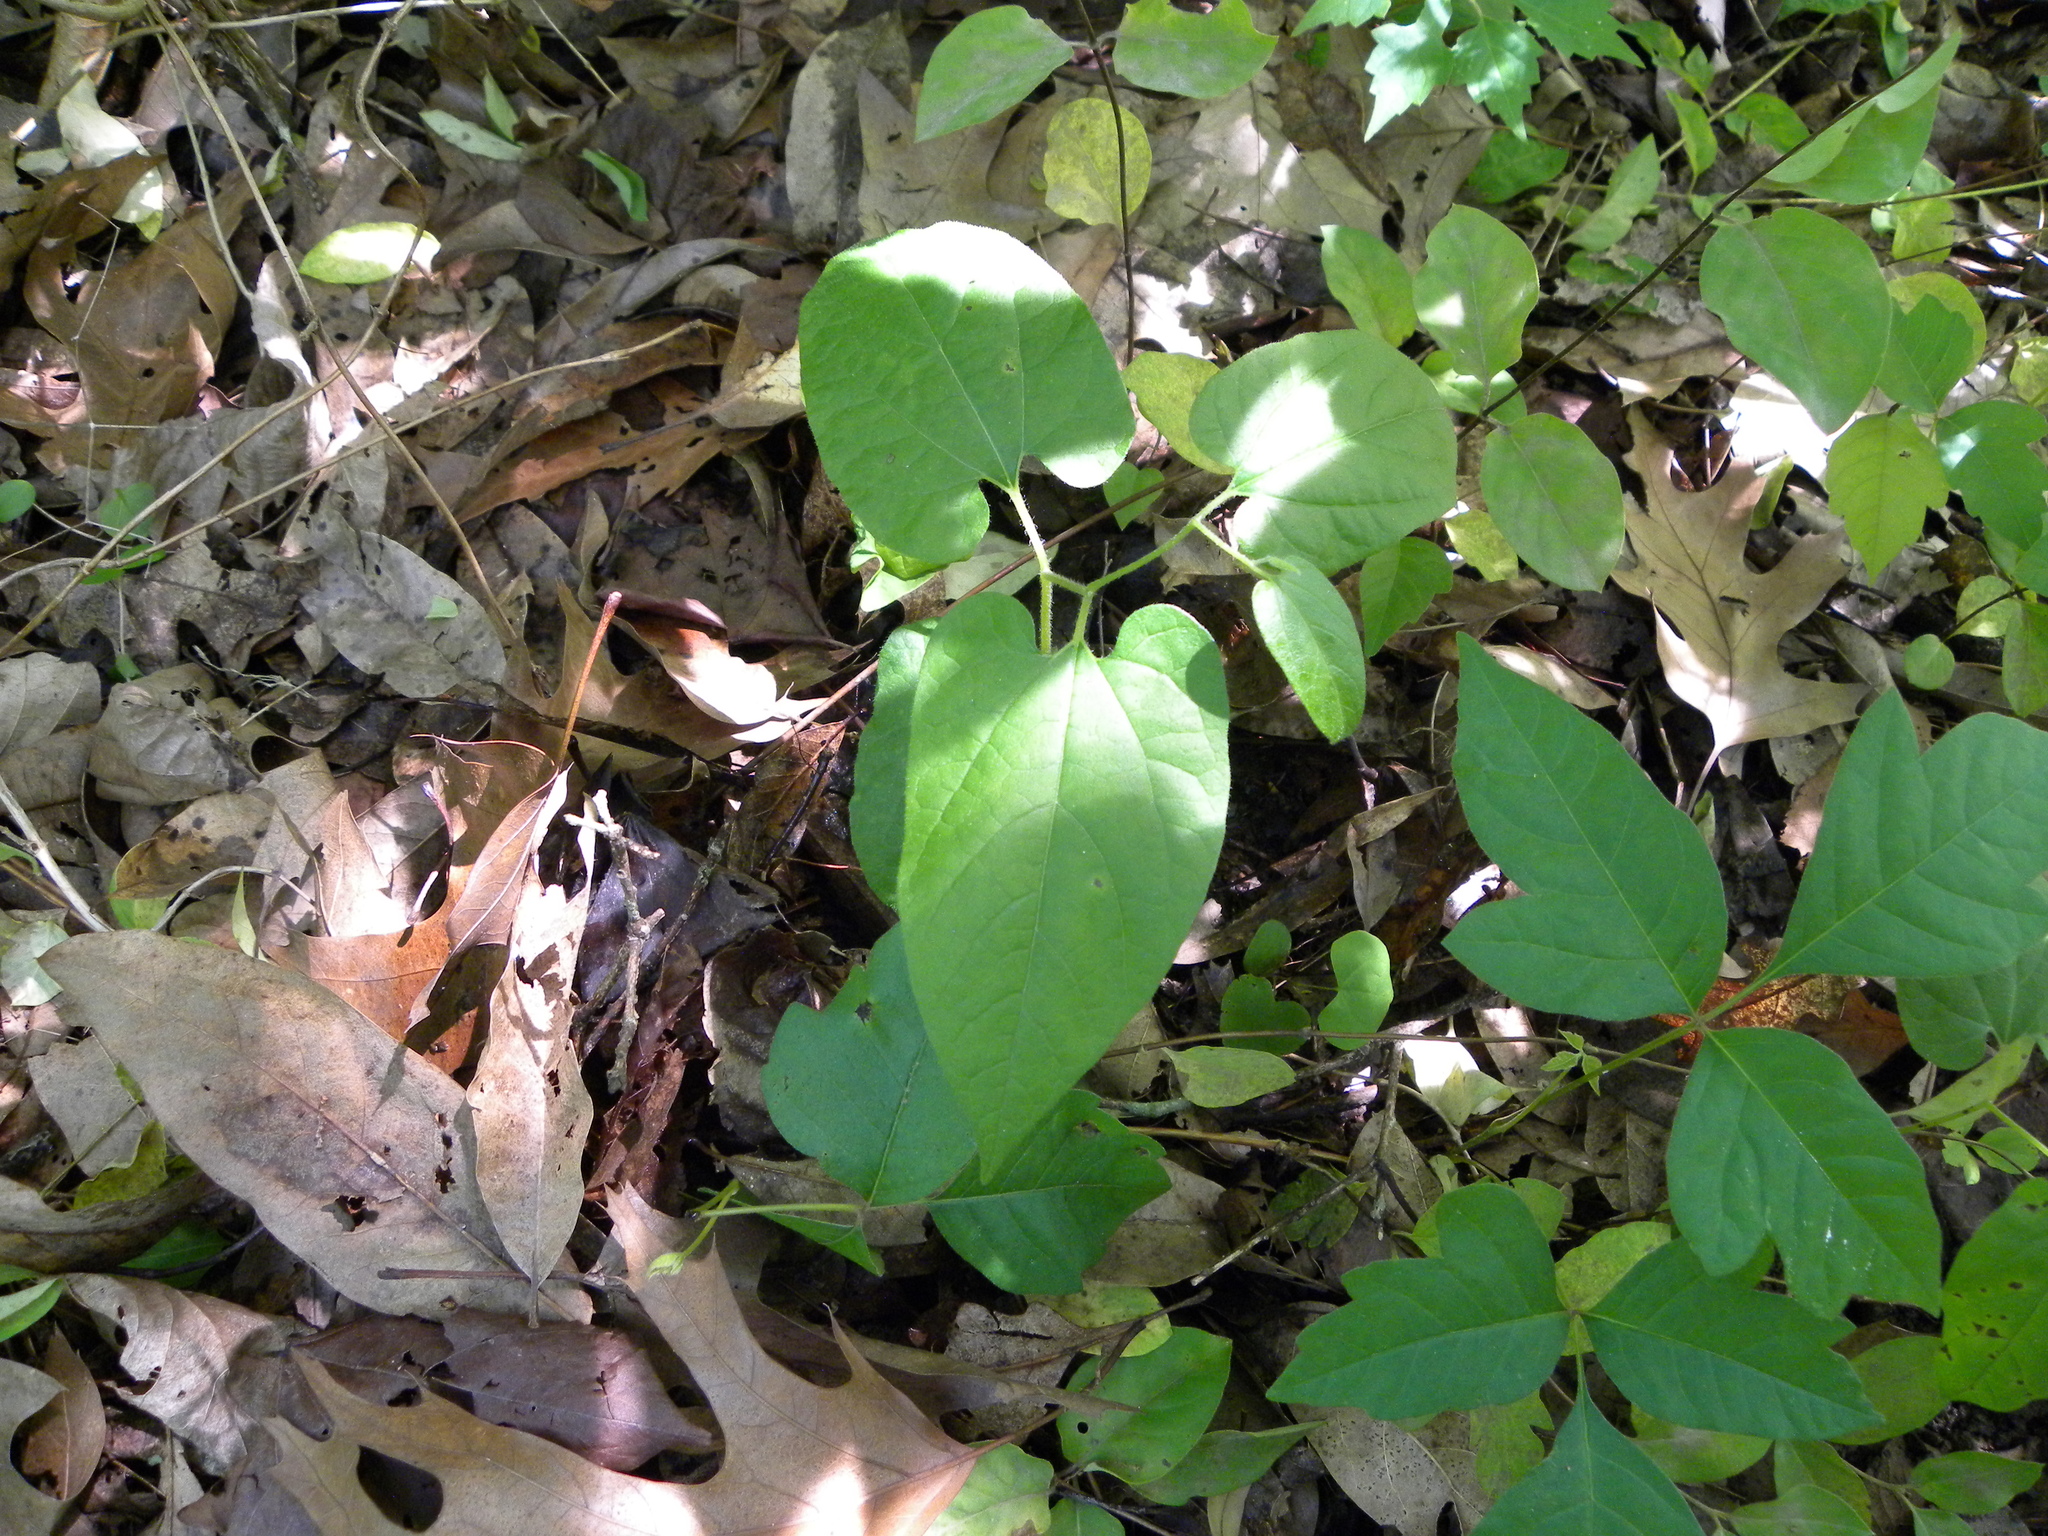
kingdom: Plantae
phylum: Tracheophyta
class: Magnoliopsida
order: Piperales
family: Aristolochiaceae
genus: Endodeca
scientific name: Endodeca serpentaria
